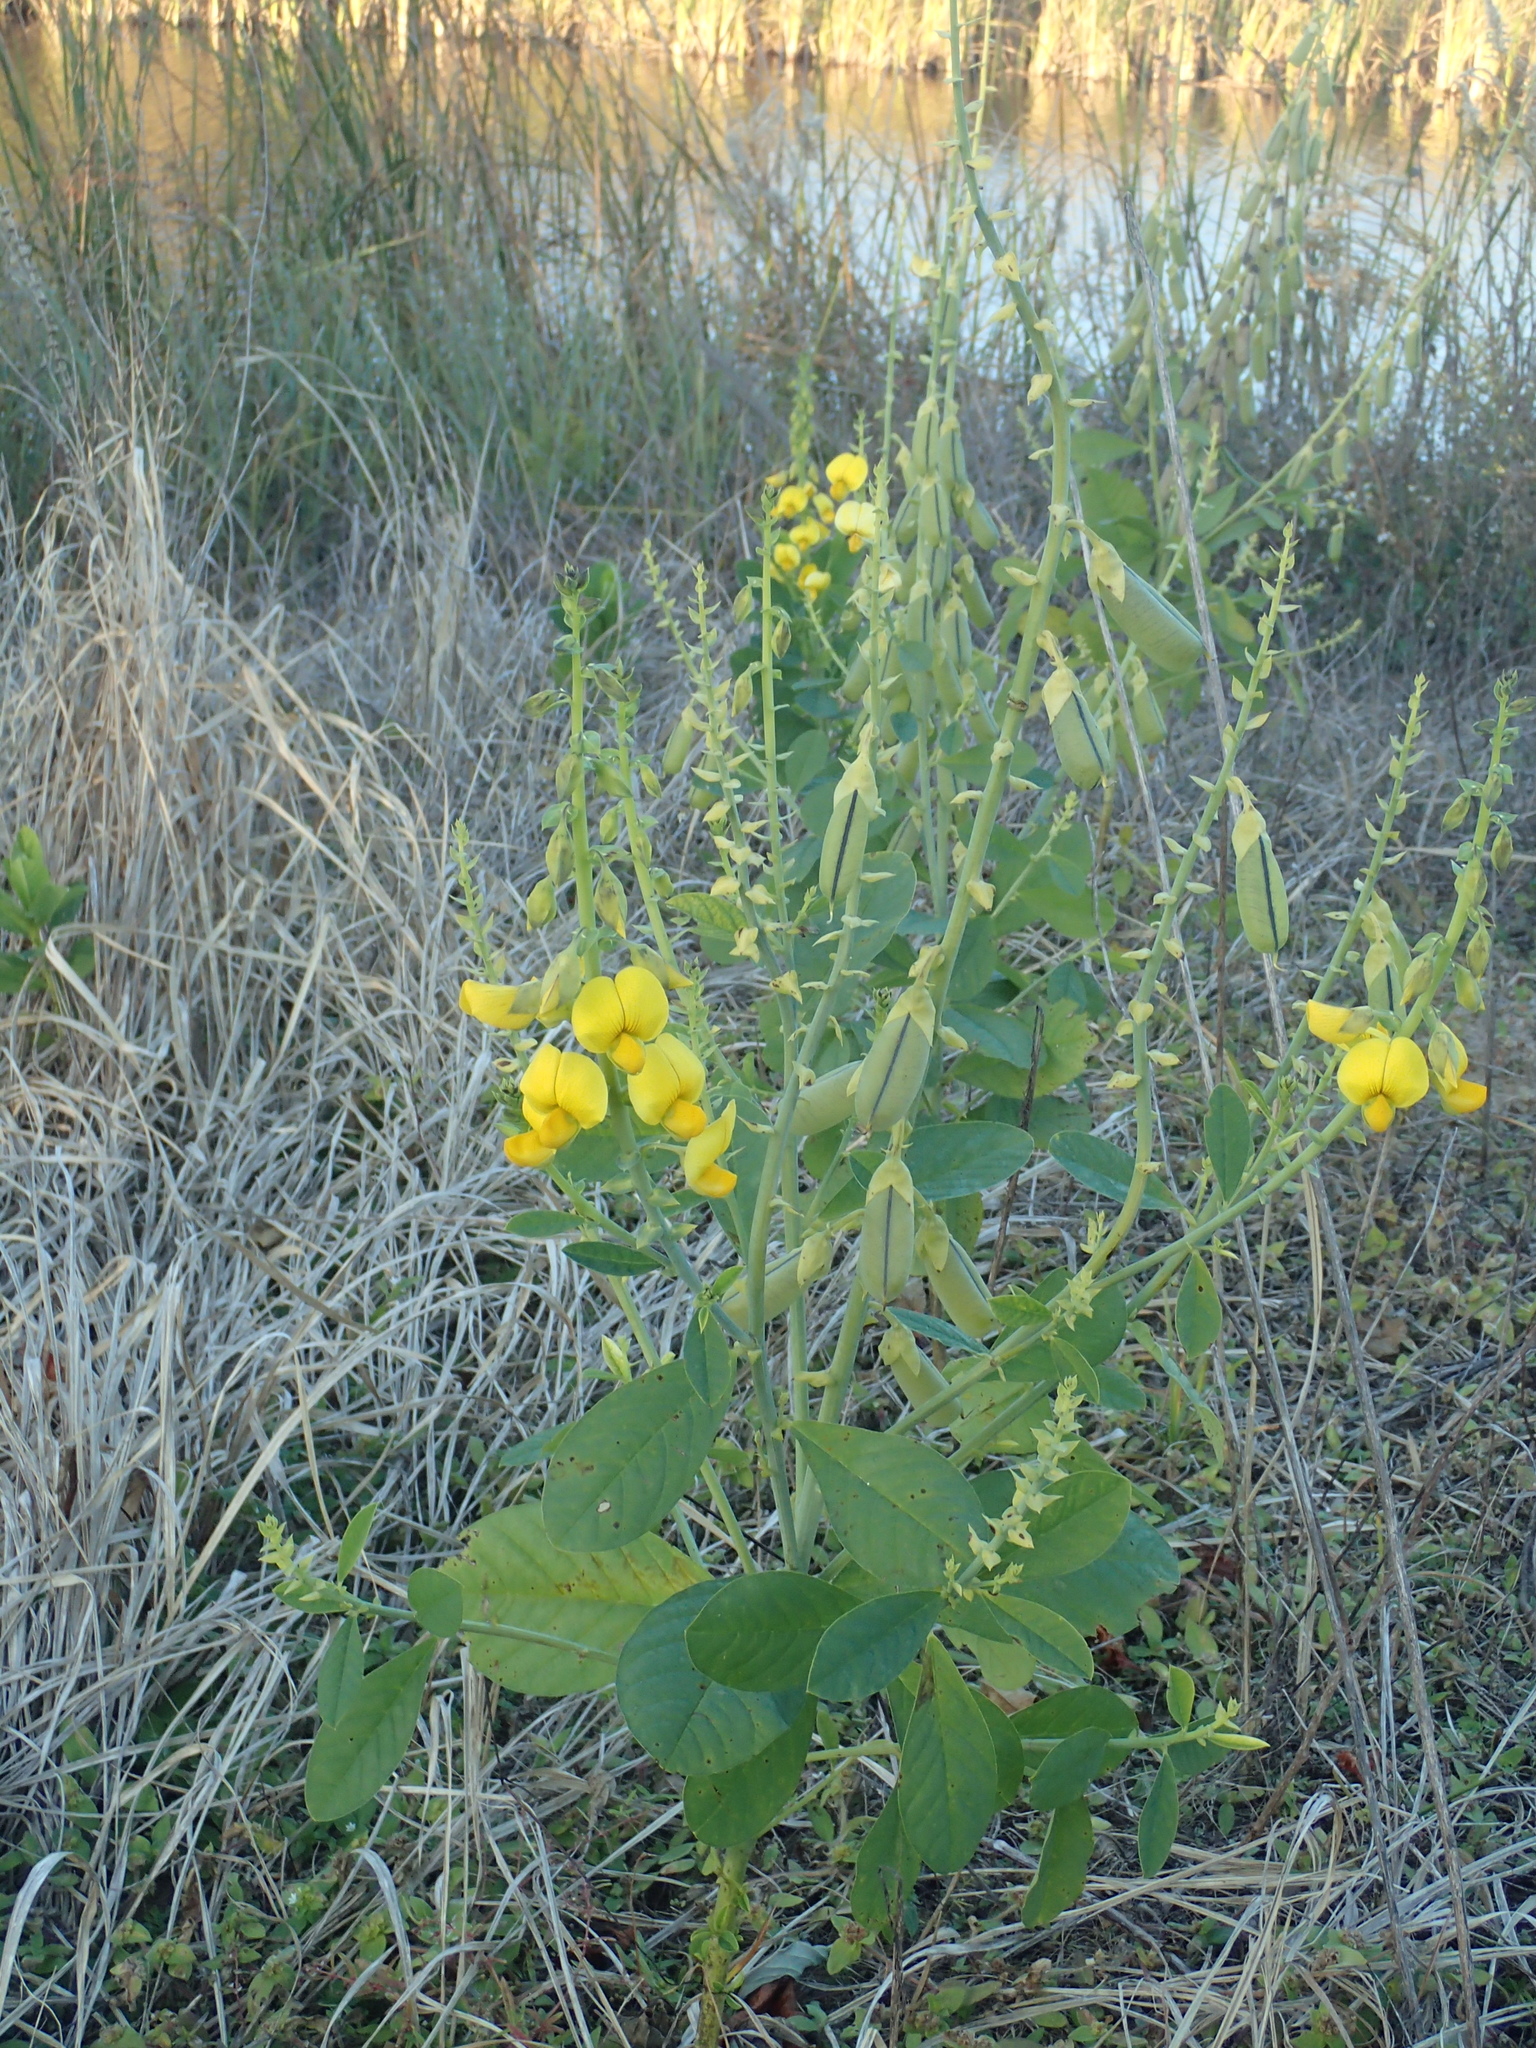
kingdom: Plantae
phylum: Tracheophyta
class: Magnoliopsida
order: Fabales
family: Fabaceae
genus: Crotalaria
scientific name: Crotalaria spectabilis
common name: Showy rattlebox
